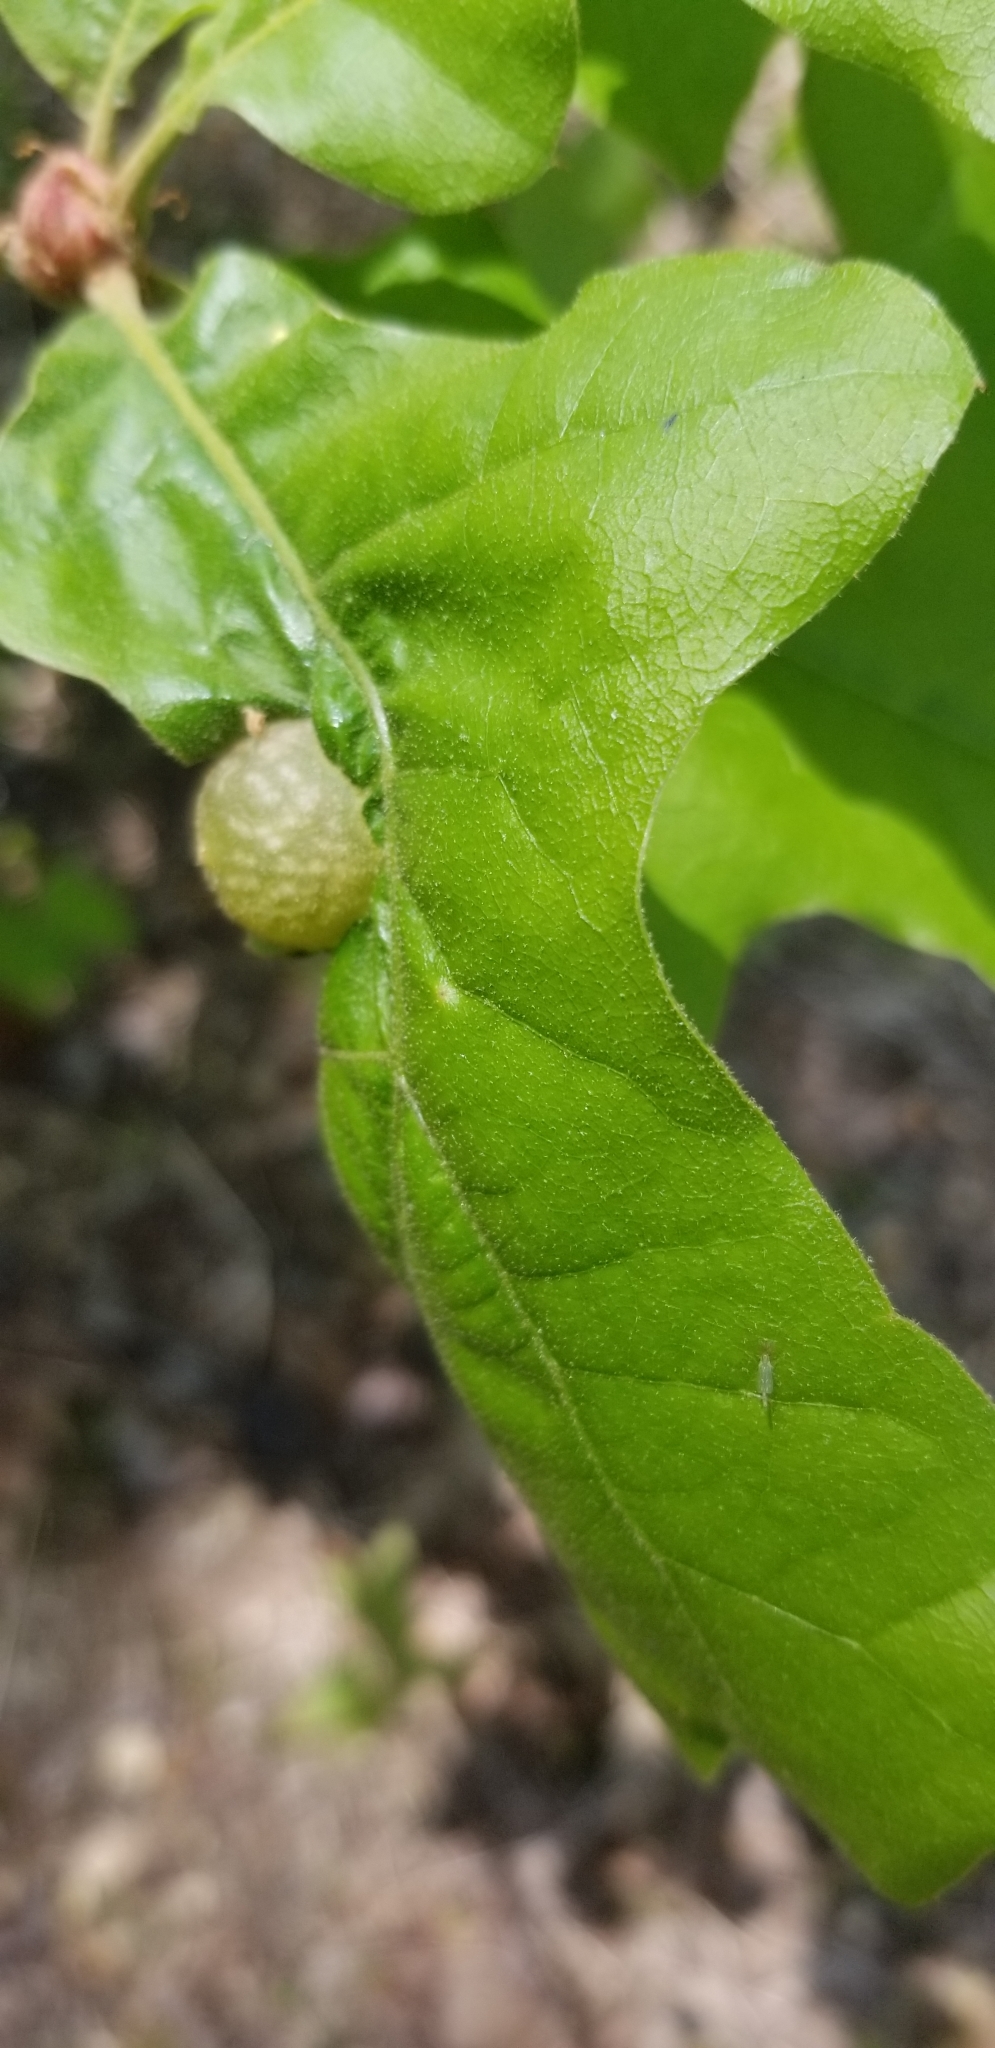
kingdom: Animalia
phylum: Arthropoda
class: Insecta
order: Hymenoptera
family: Cynipidae
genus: Dryocosmus
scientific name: Dryocosmus quercuspalustris
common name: Succulent oak gall wasp
